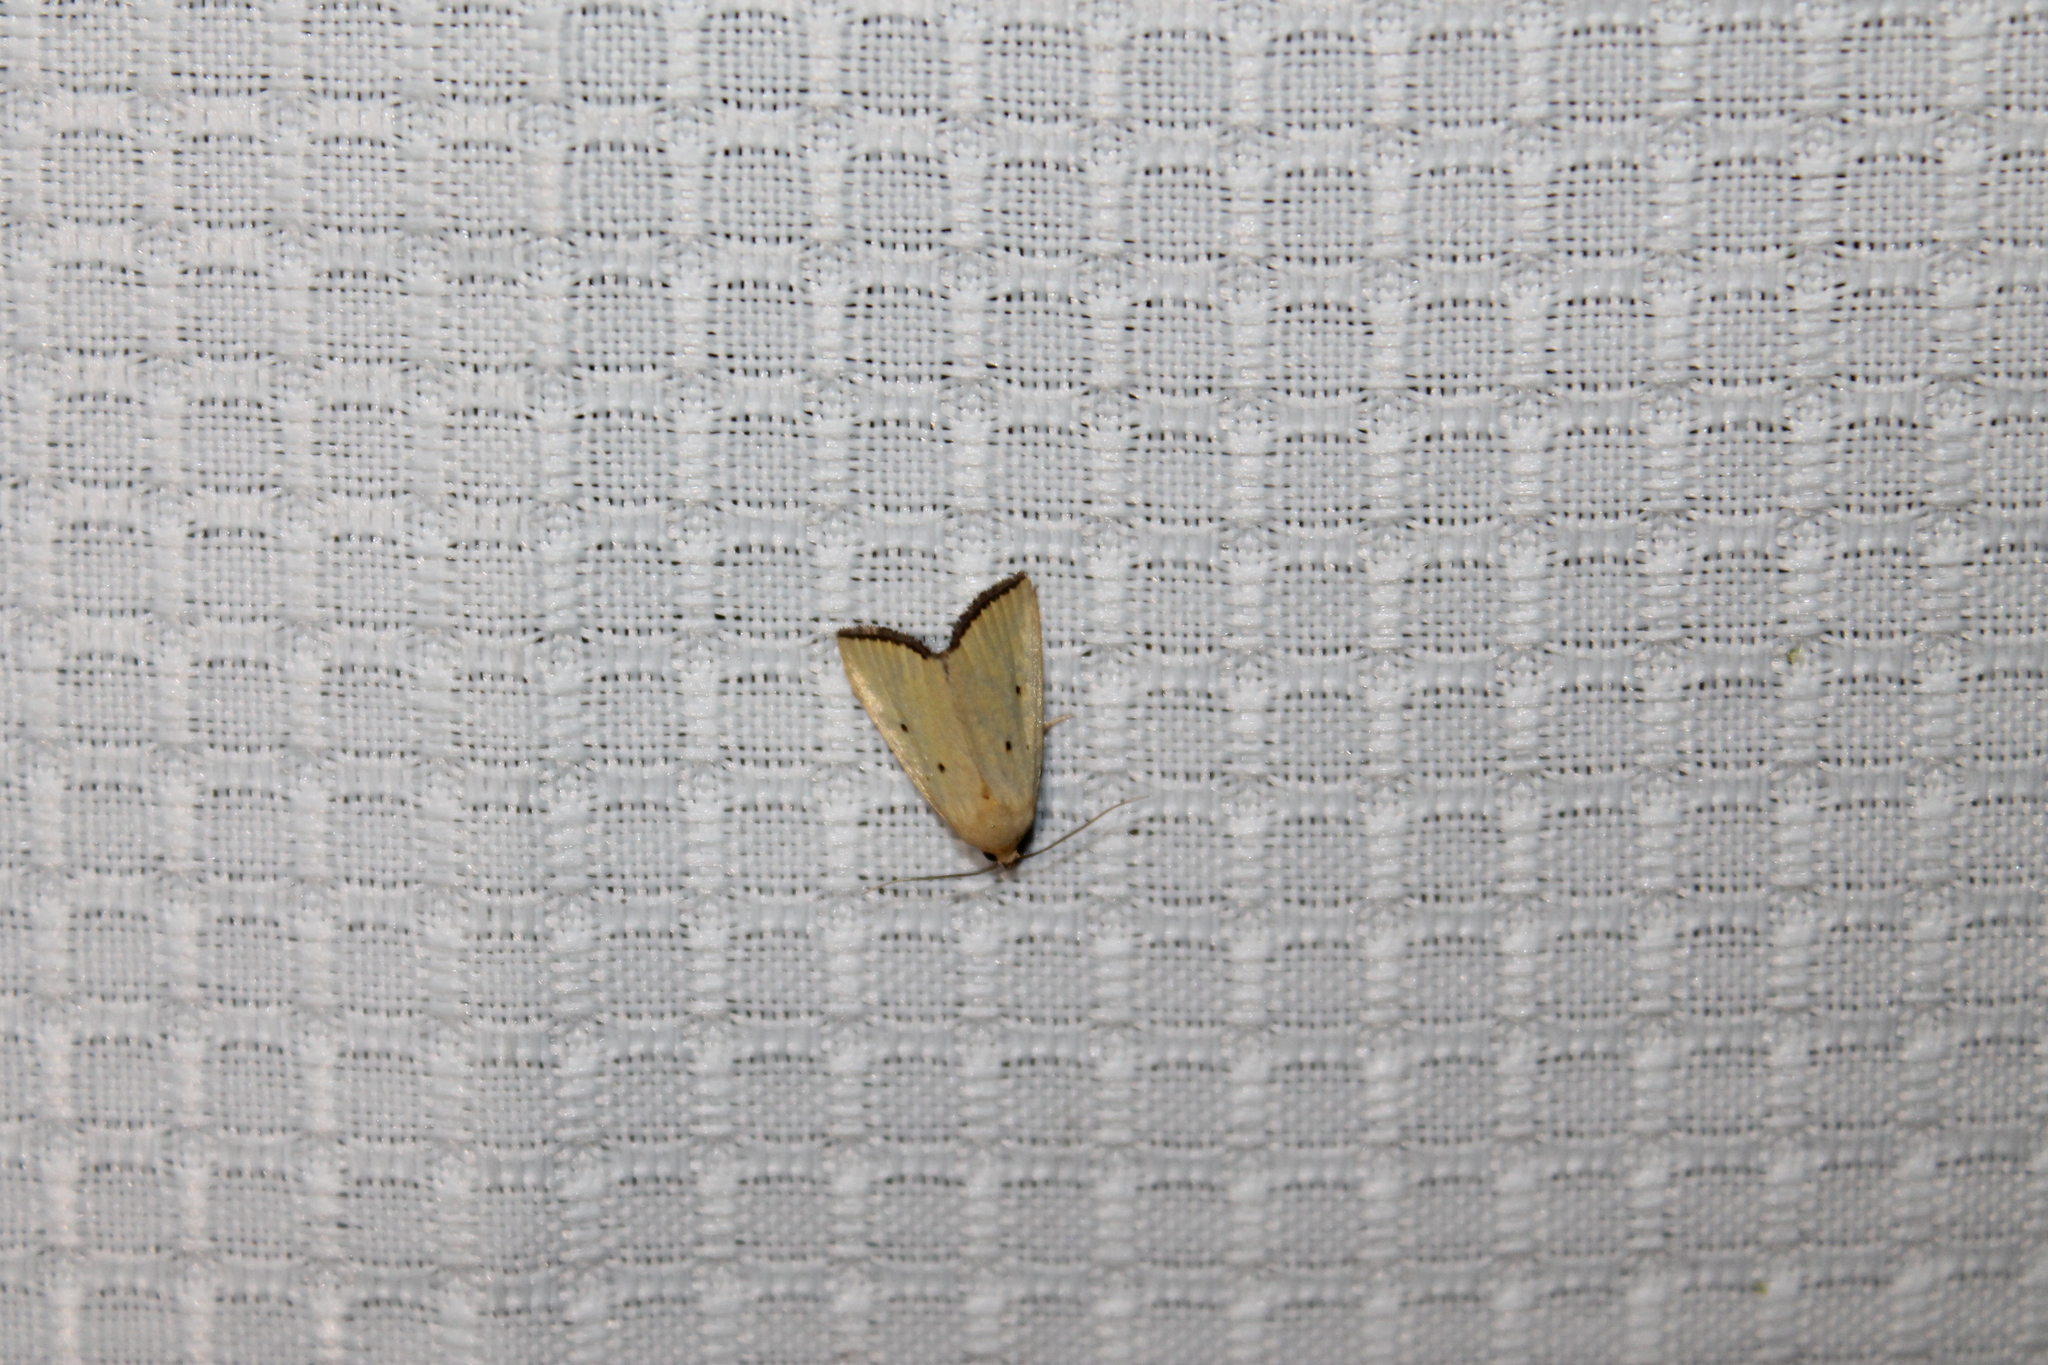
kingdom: Animalia
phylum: Arthropoda
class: Insecta
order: Lepidoptera
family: Noctuidae
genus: Marimatha
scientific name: Marimatha nigrofimbria
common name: Black-bordered lemon moth
